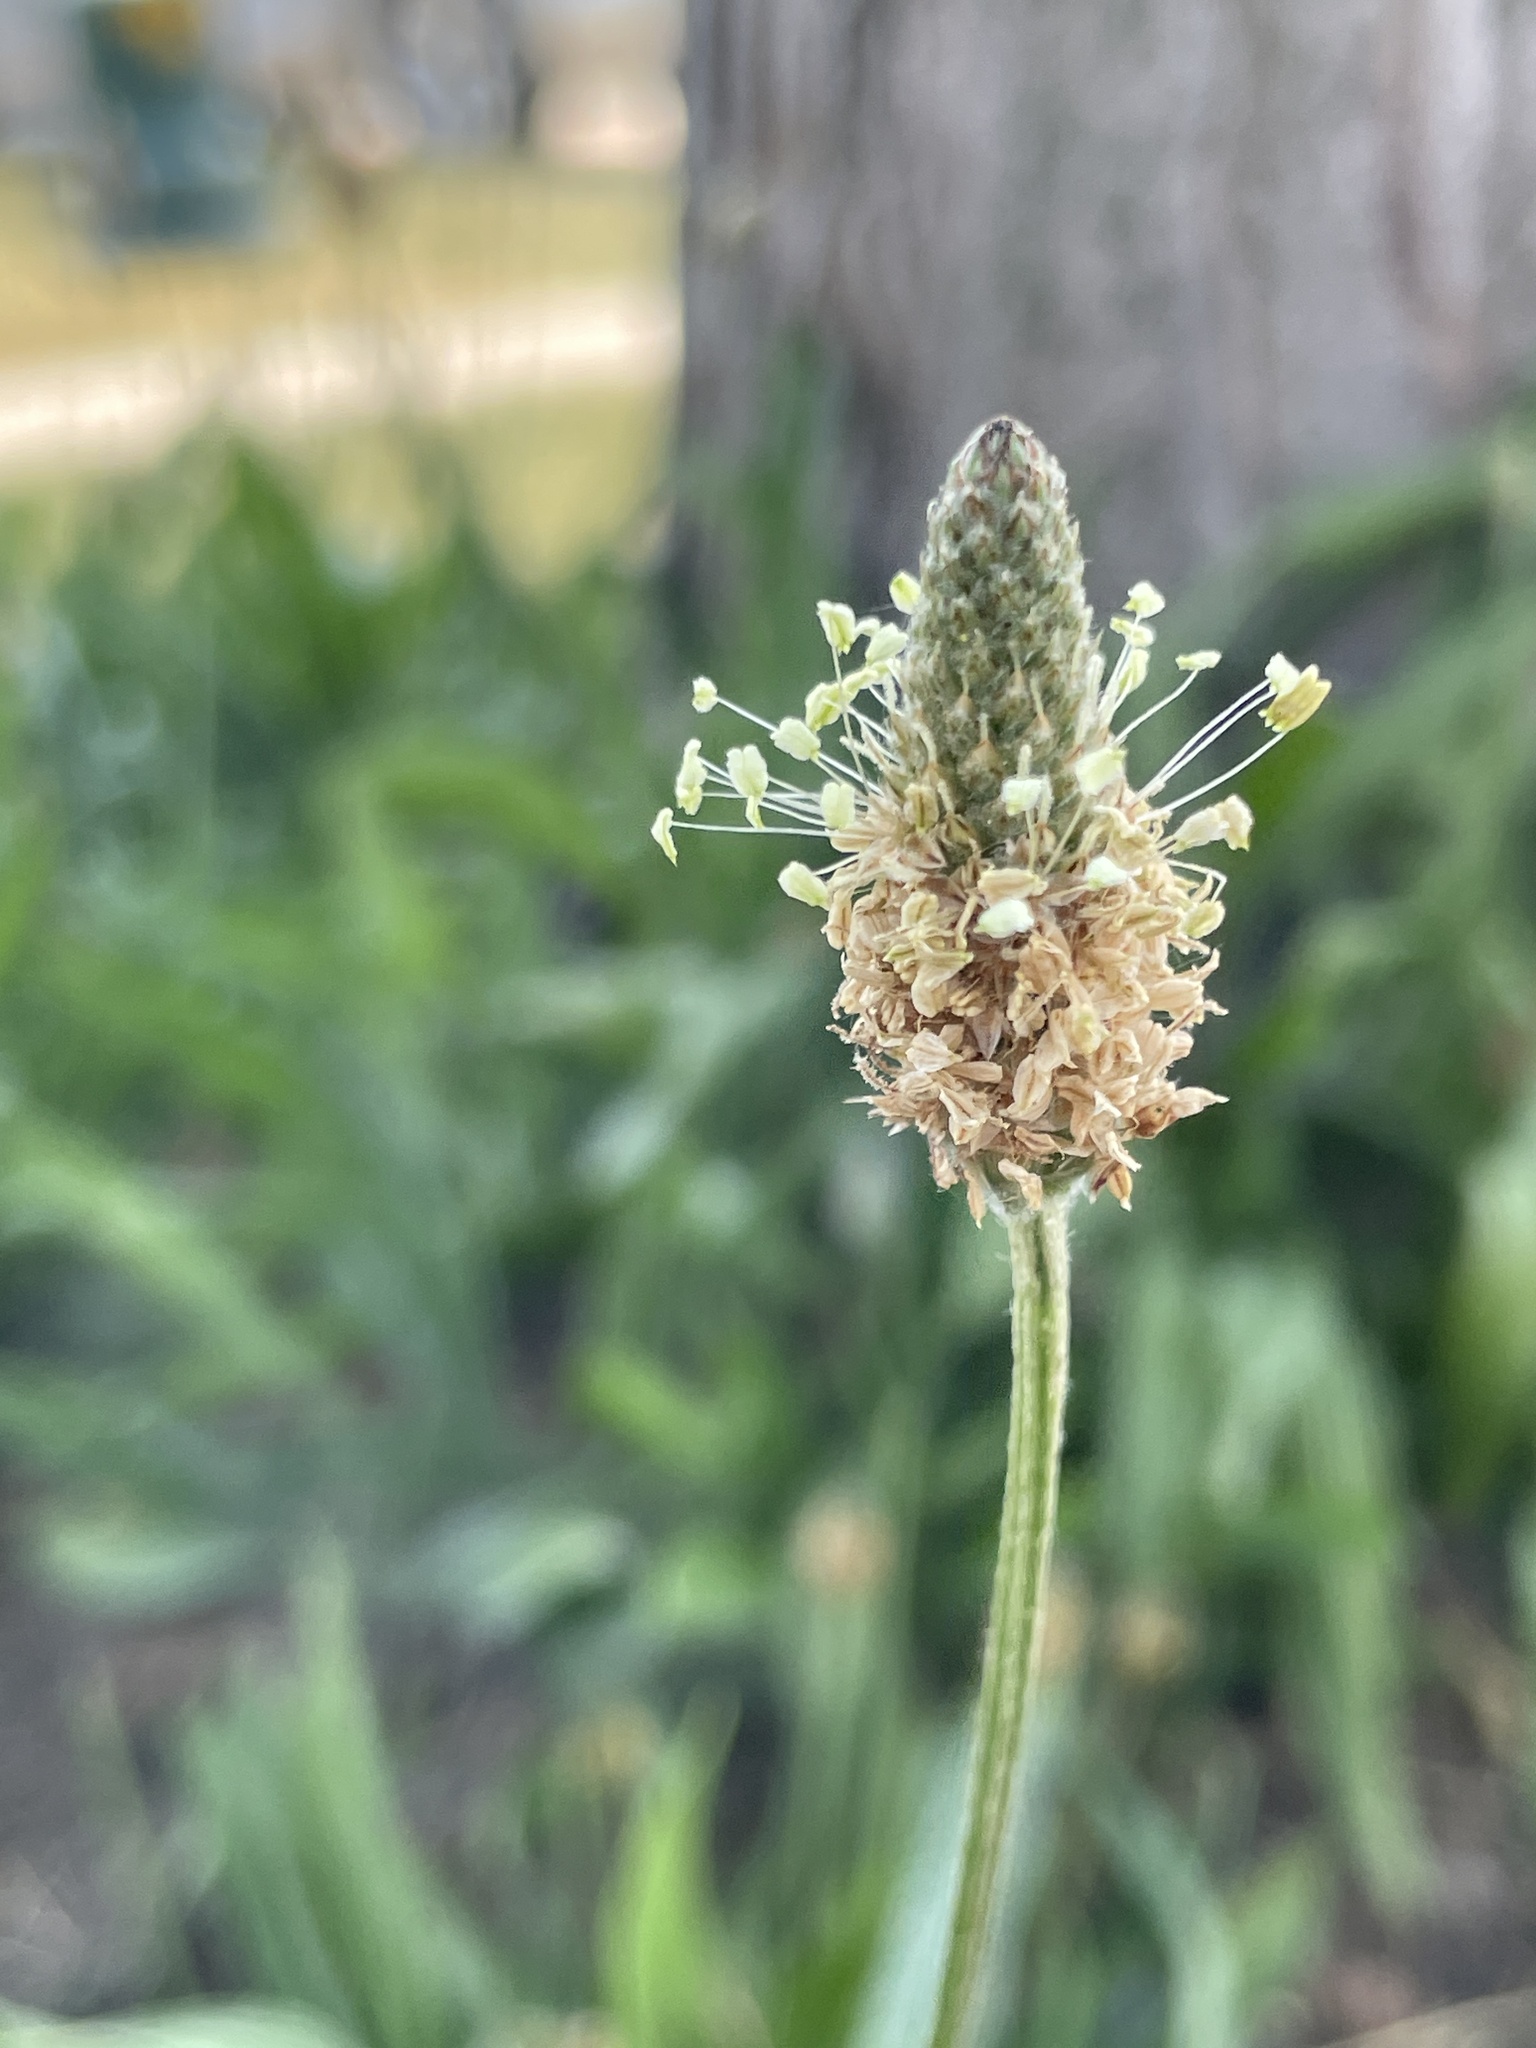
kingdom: Plantae
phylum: Tracheophyta
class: Magnoliopsida
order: Lamiales
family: Plantaginaceae
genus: Plantago
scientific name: Plantago lanceolata
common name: Ribwort plantain
